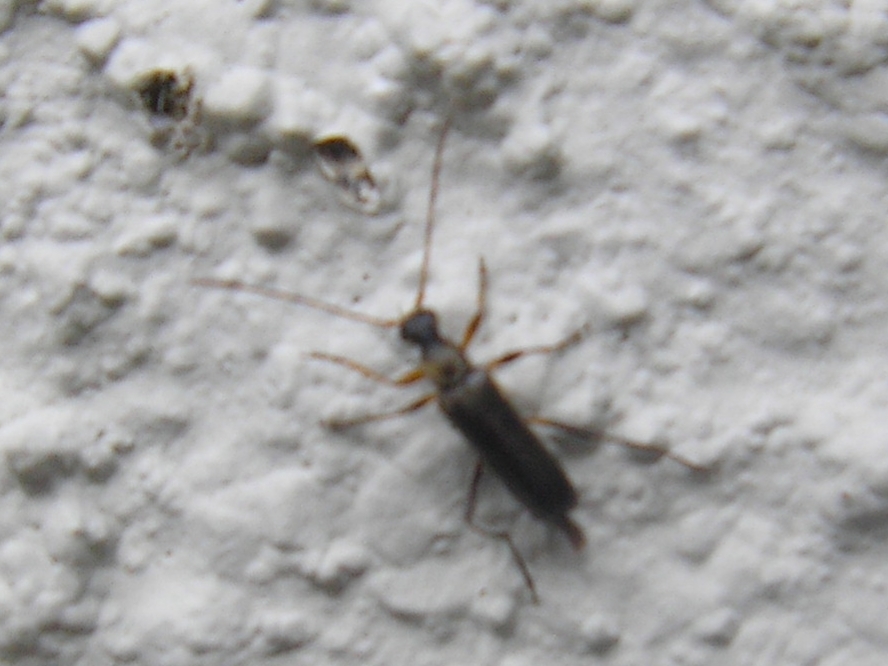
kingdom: Animalia
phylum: Arthropoda
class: Insecta
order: Coleoptera
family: Cerambycidae
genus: Grammoptera
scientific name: Grammoptera ruficornis
